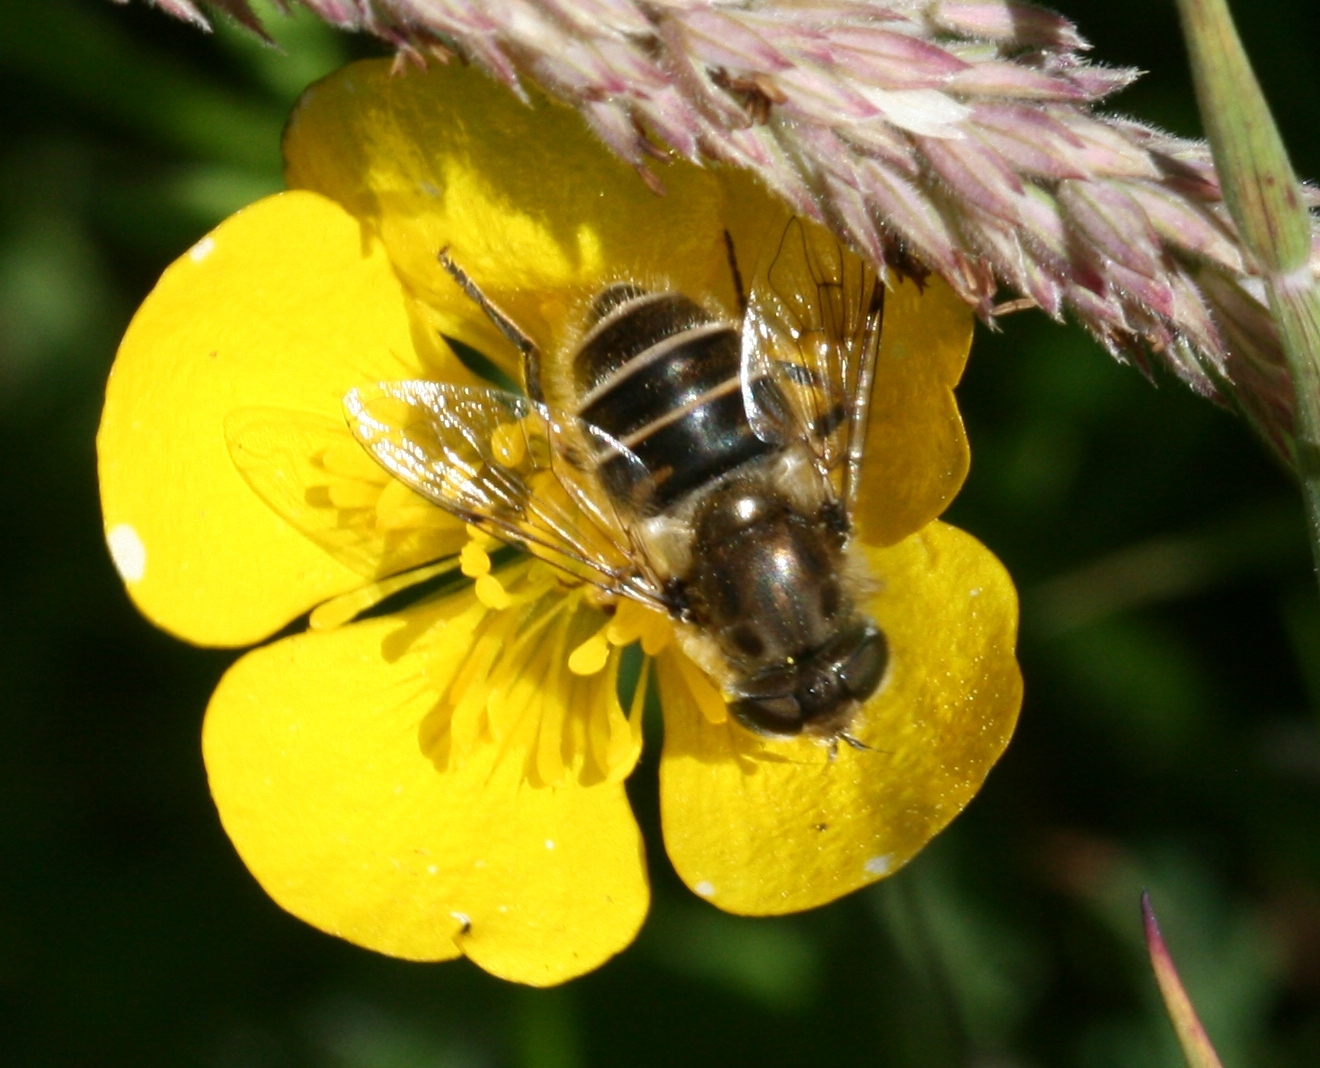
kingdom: Animalia
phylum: Arthropoda
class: Insecta
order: Diptera
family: Syrphidae
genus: Eoseristalis
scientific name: Eoseristalis
